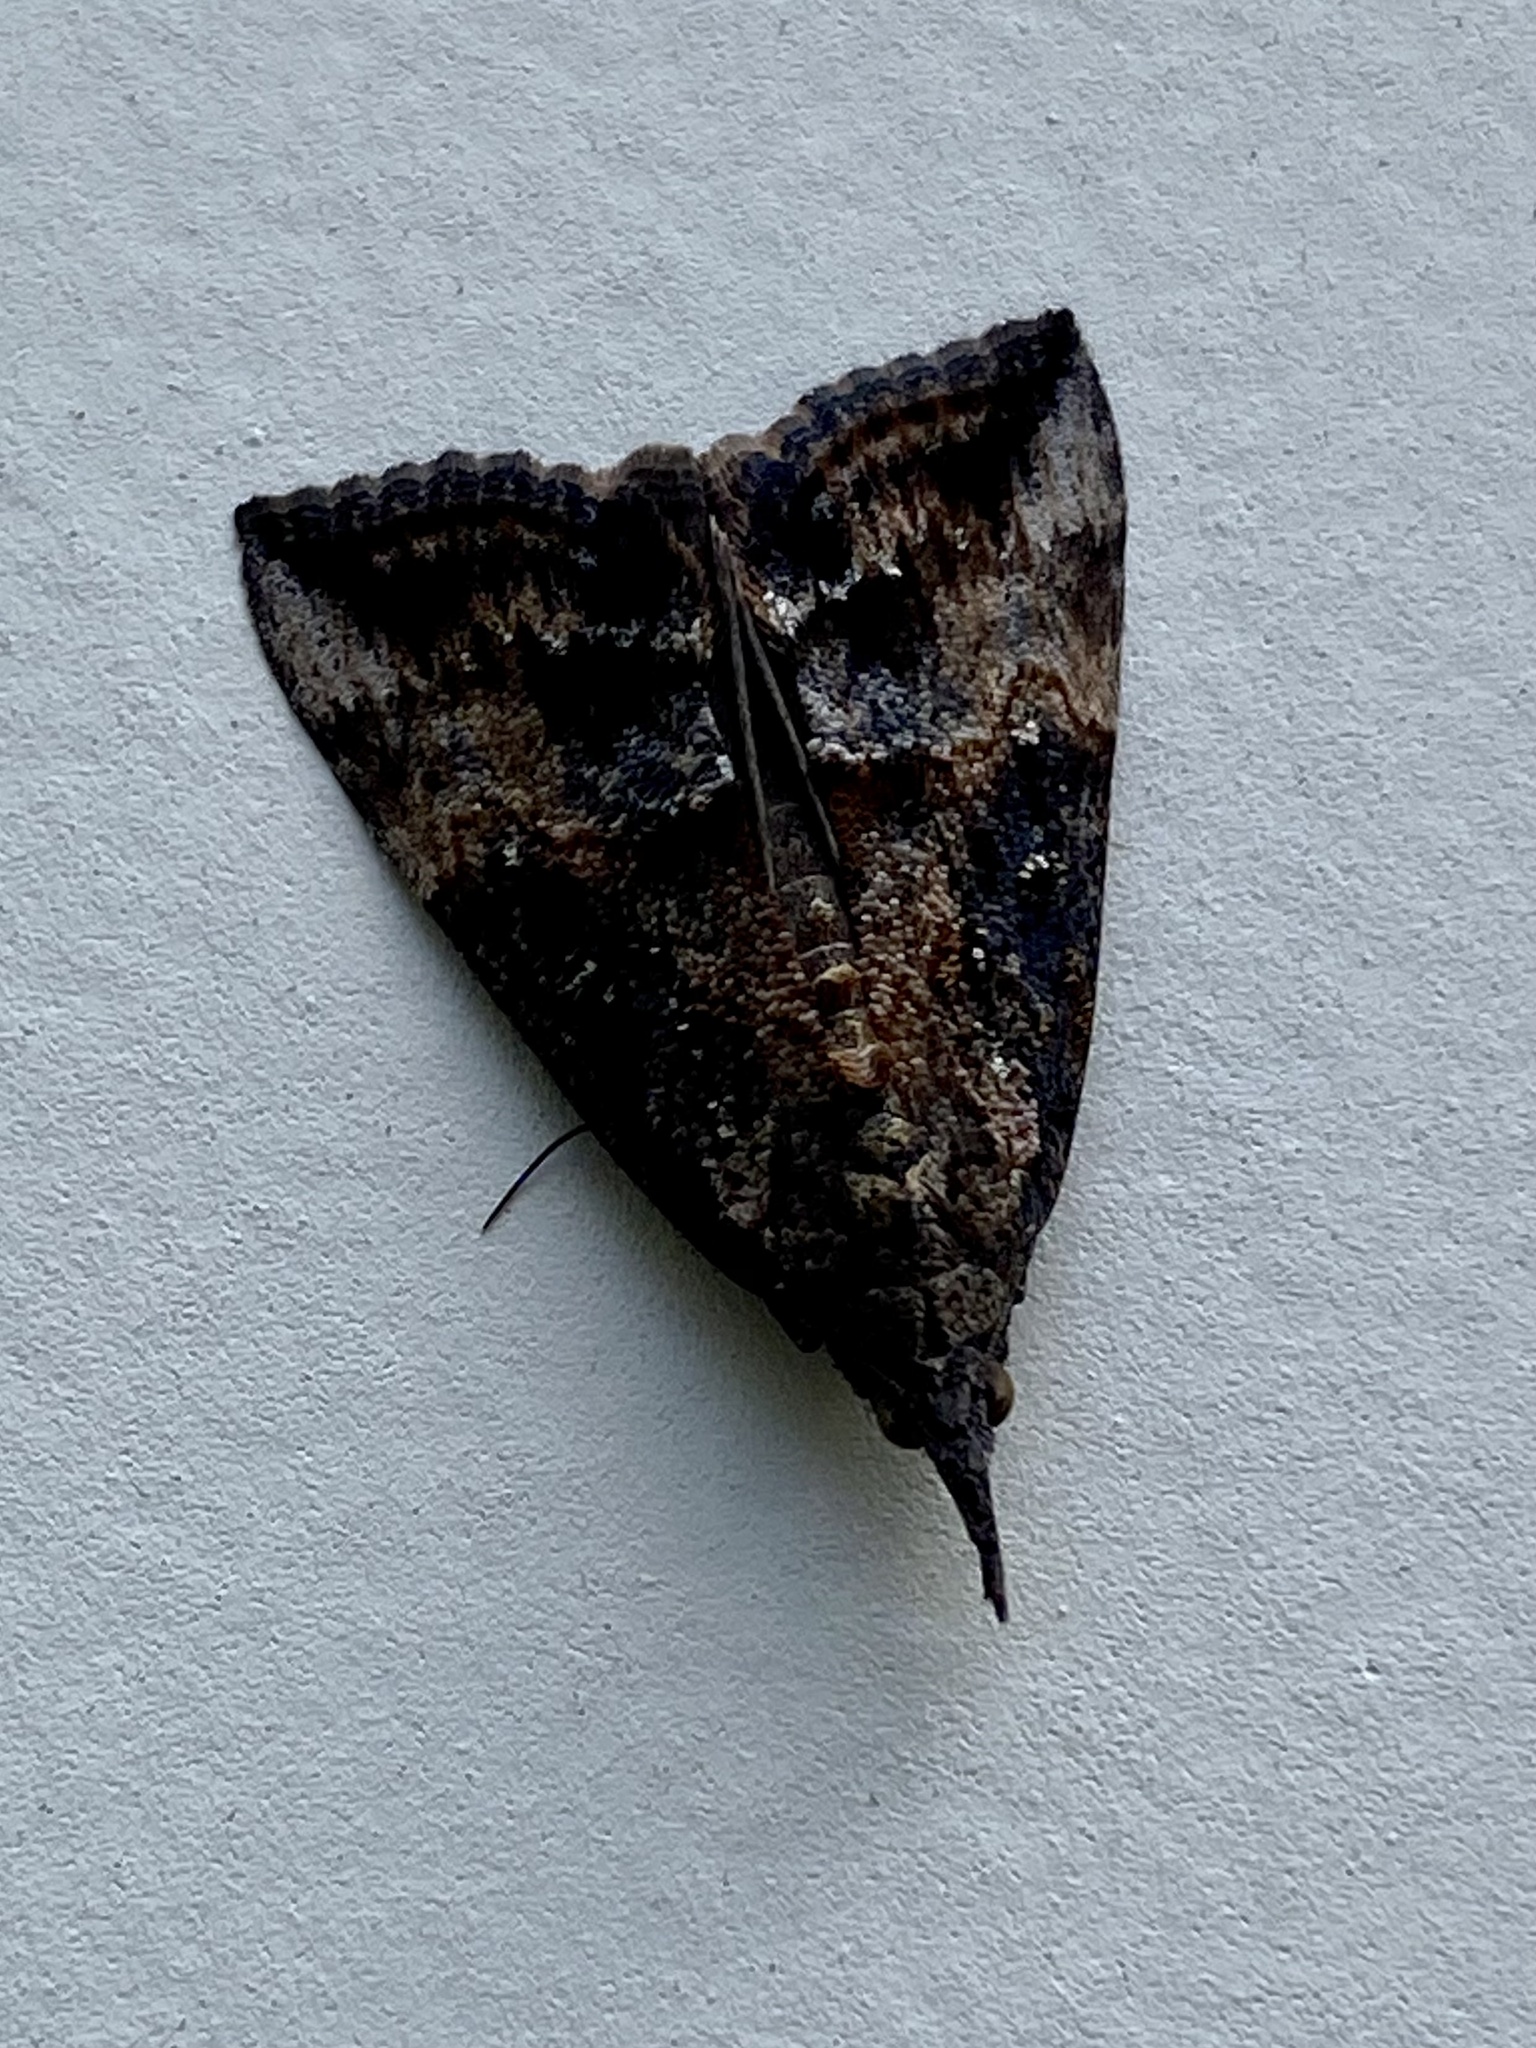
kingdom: Animalia
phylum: Arthropoda
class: Insecta
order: Lepidoptera
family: Erebidae
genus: Hypena
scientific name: Hypena scabra
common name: Green cloverworm
